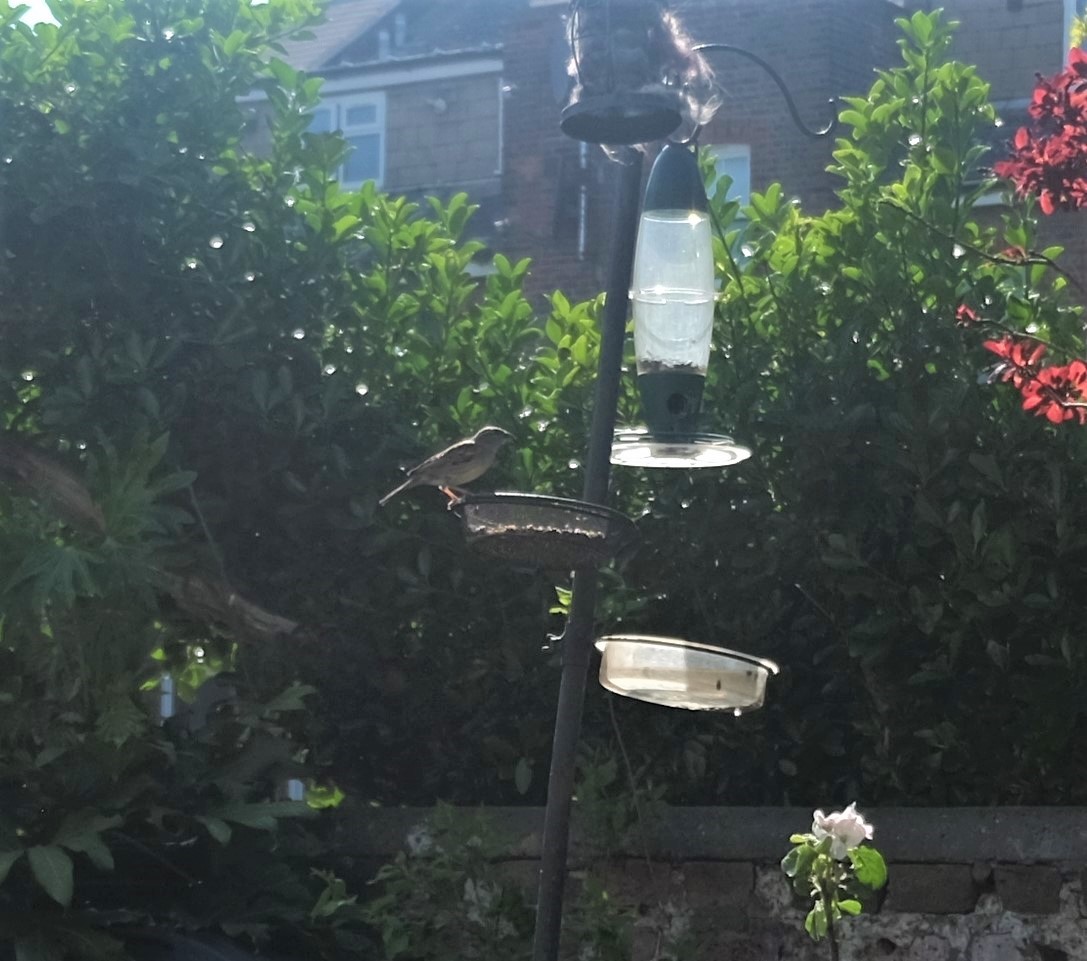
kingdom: Animalia
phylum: Chordata
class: Aves
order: Passeriformes
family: Passeridae
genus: Passer
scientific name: Passer domesticus
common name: House sparrow
